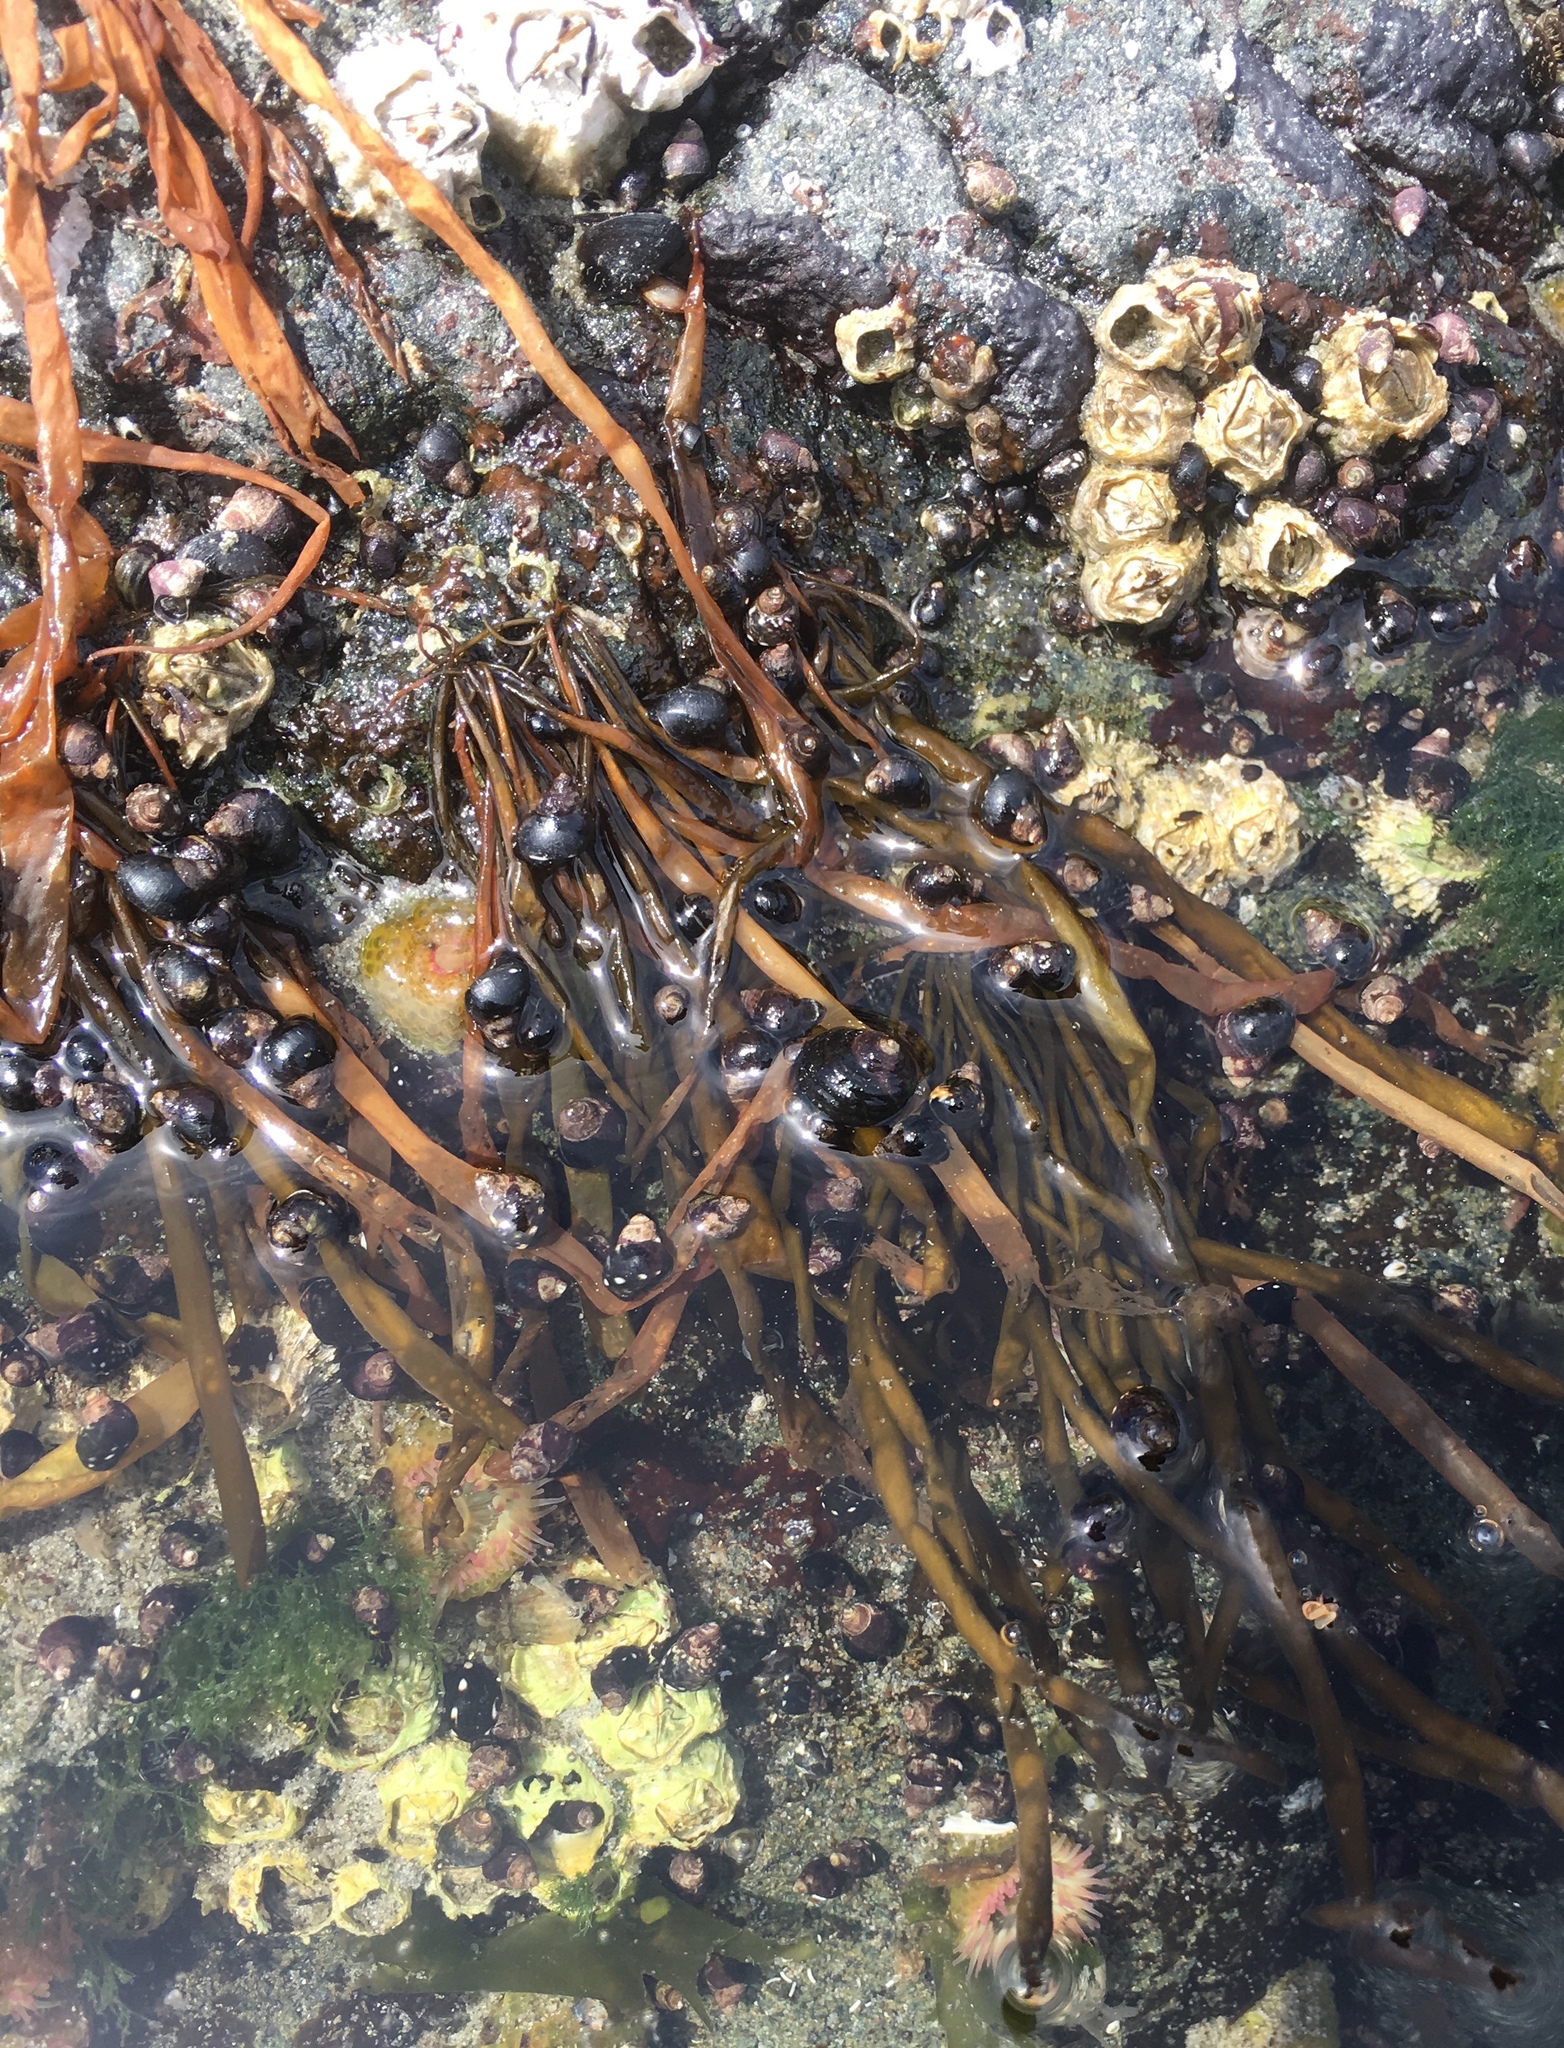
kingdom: Chromista
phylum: Ochrophyta
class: Phaeophyceae
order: Scytosiphonales
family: Scytosiphonaceae
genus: Scytosiphon
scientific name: Scytosiphon lomentaria
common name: Beanweed
